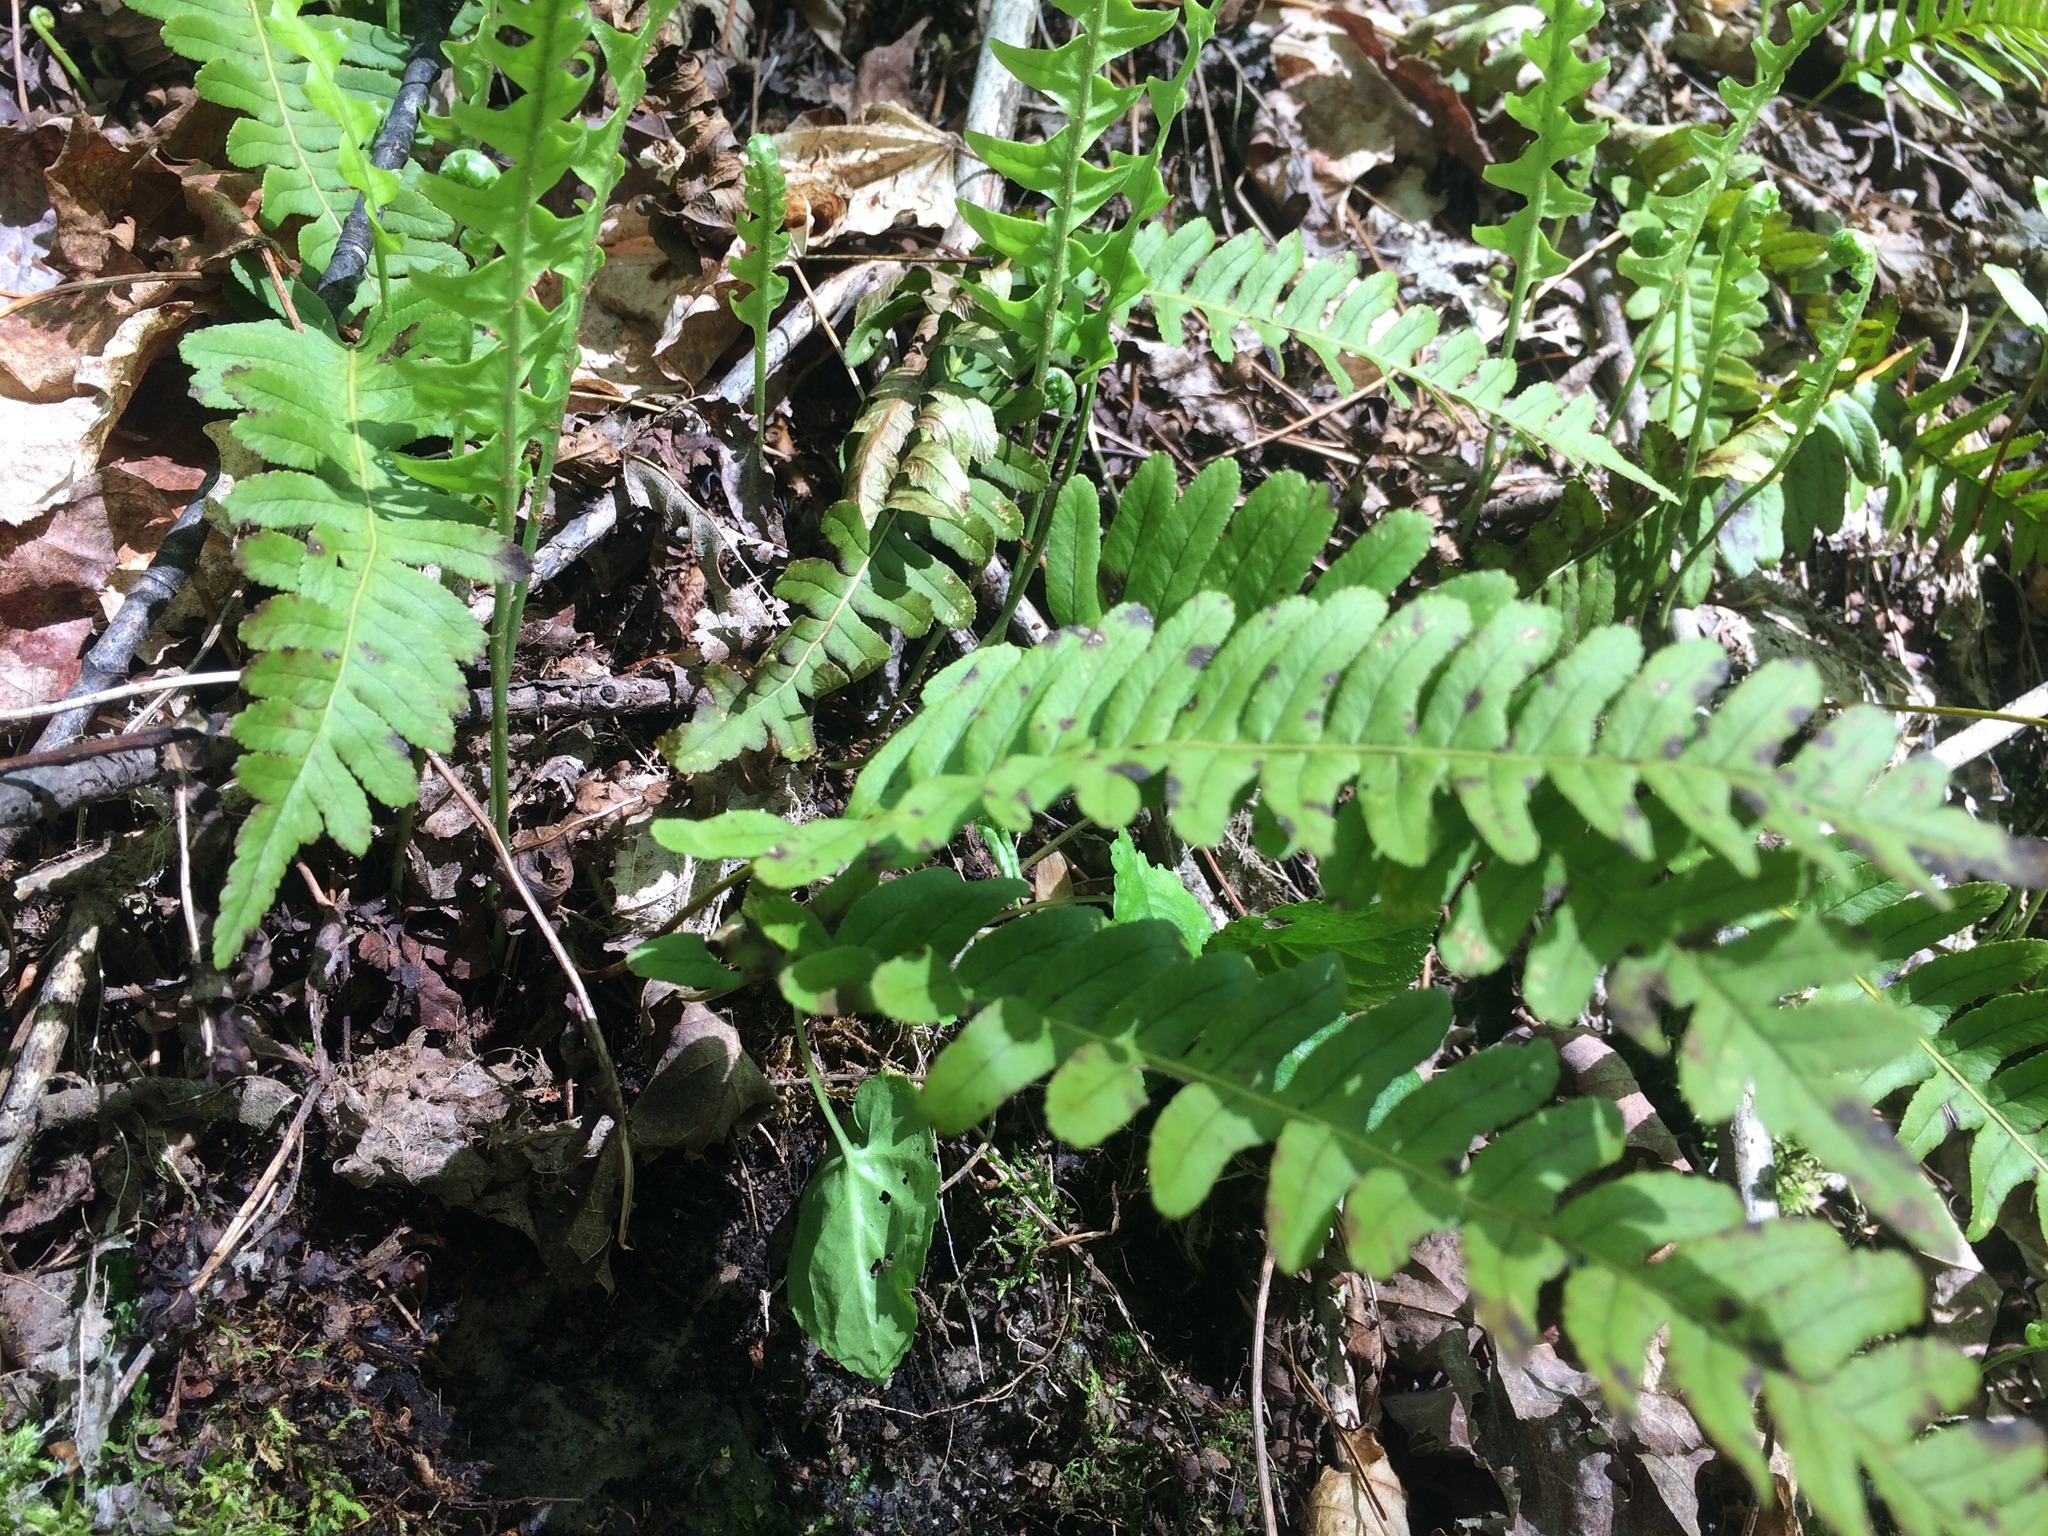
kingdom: Plantae
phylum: Tracheophyta
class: Polypodiopsida
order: Polypodiales
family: Polypodiaceae
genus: Polypodium
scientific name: Polypodium virginianum
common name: American wall fern
